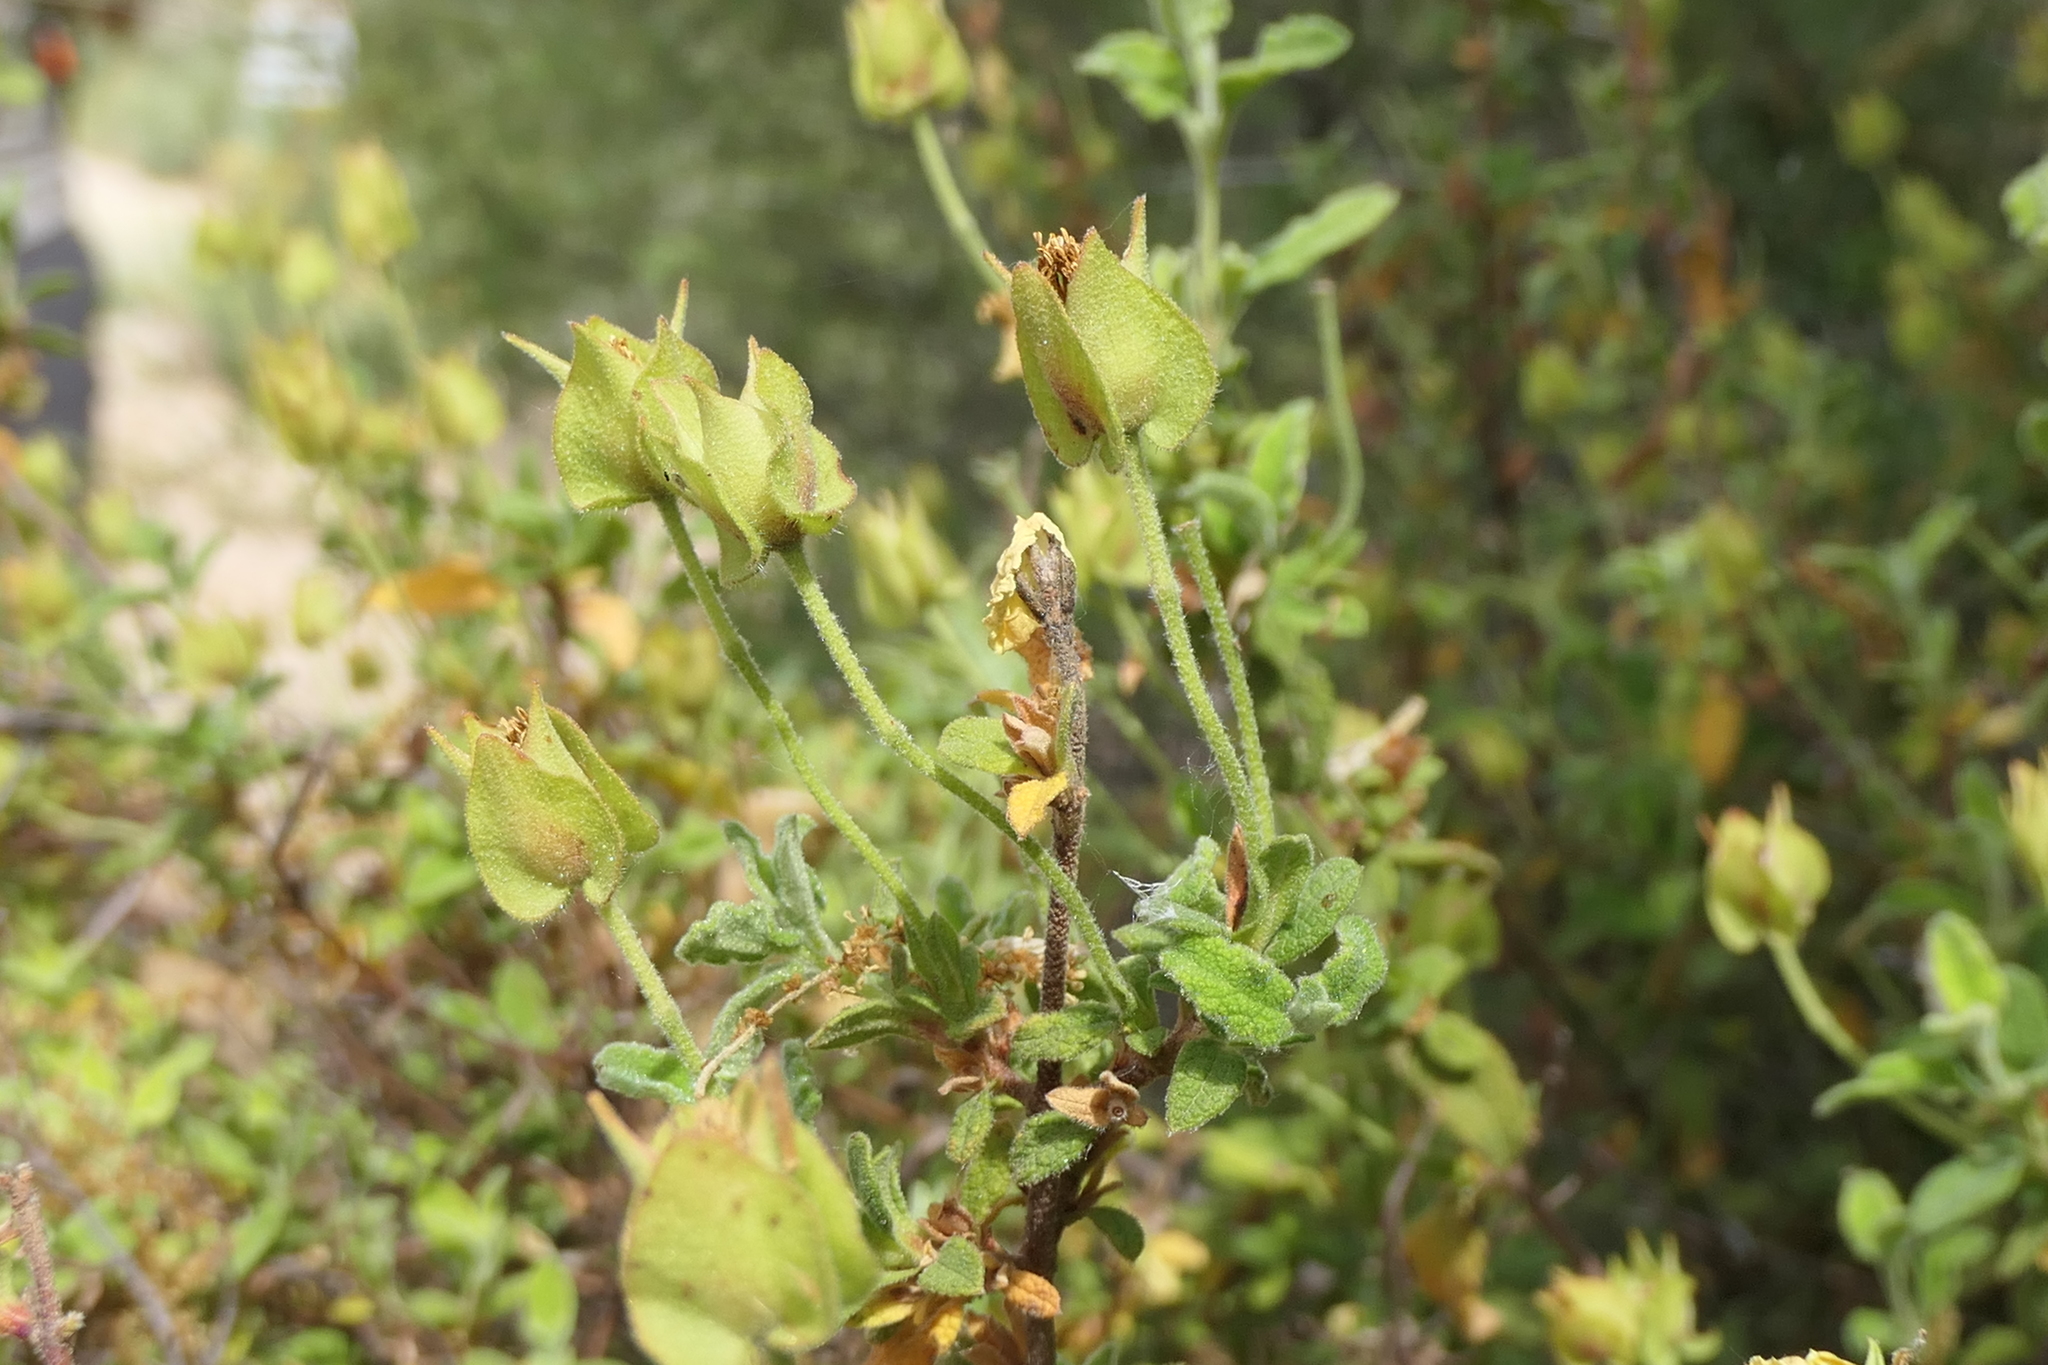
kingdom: Plantae
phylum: Tracheophyta
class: Magnoliopsida
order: Malvales
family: Cistaceae
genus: Cistus
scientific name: Cistus salviifolius
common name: Salvia cistus
